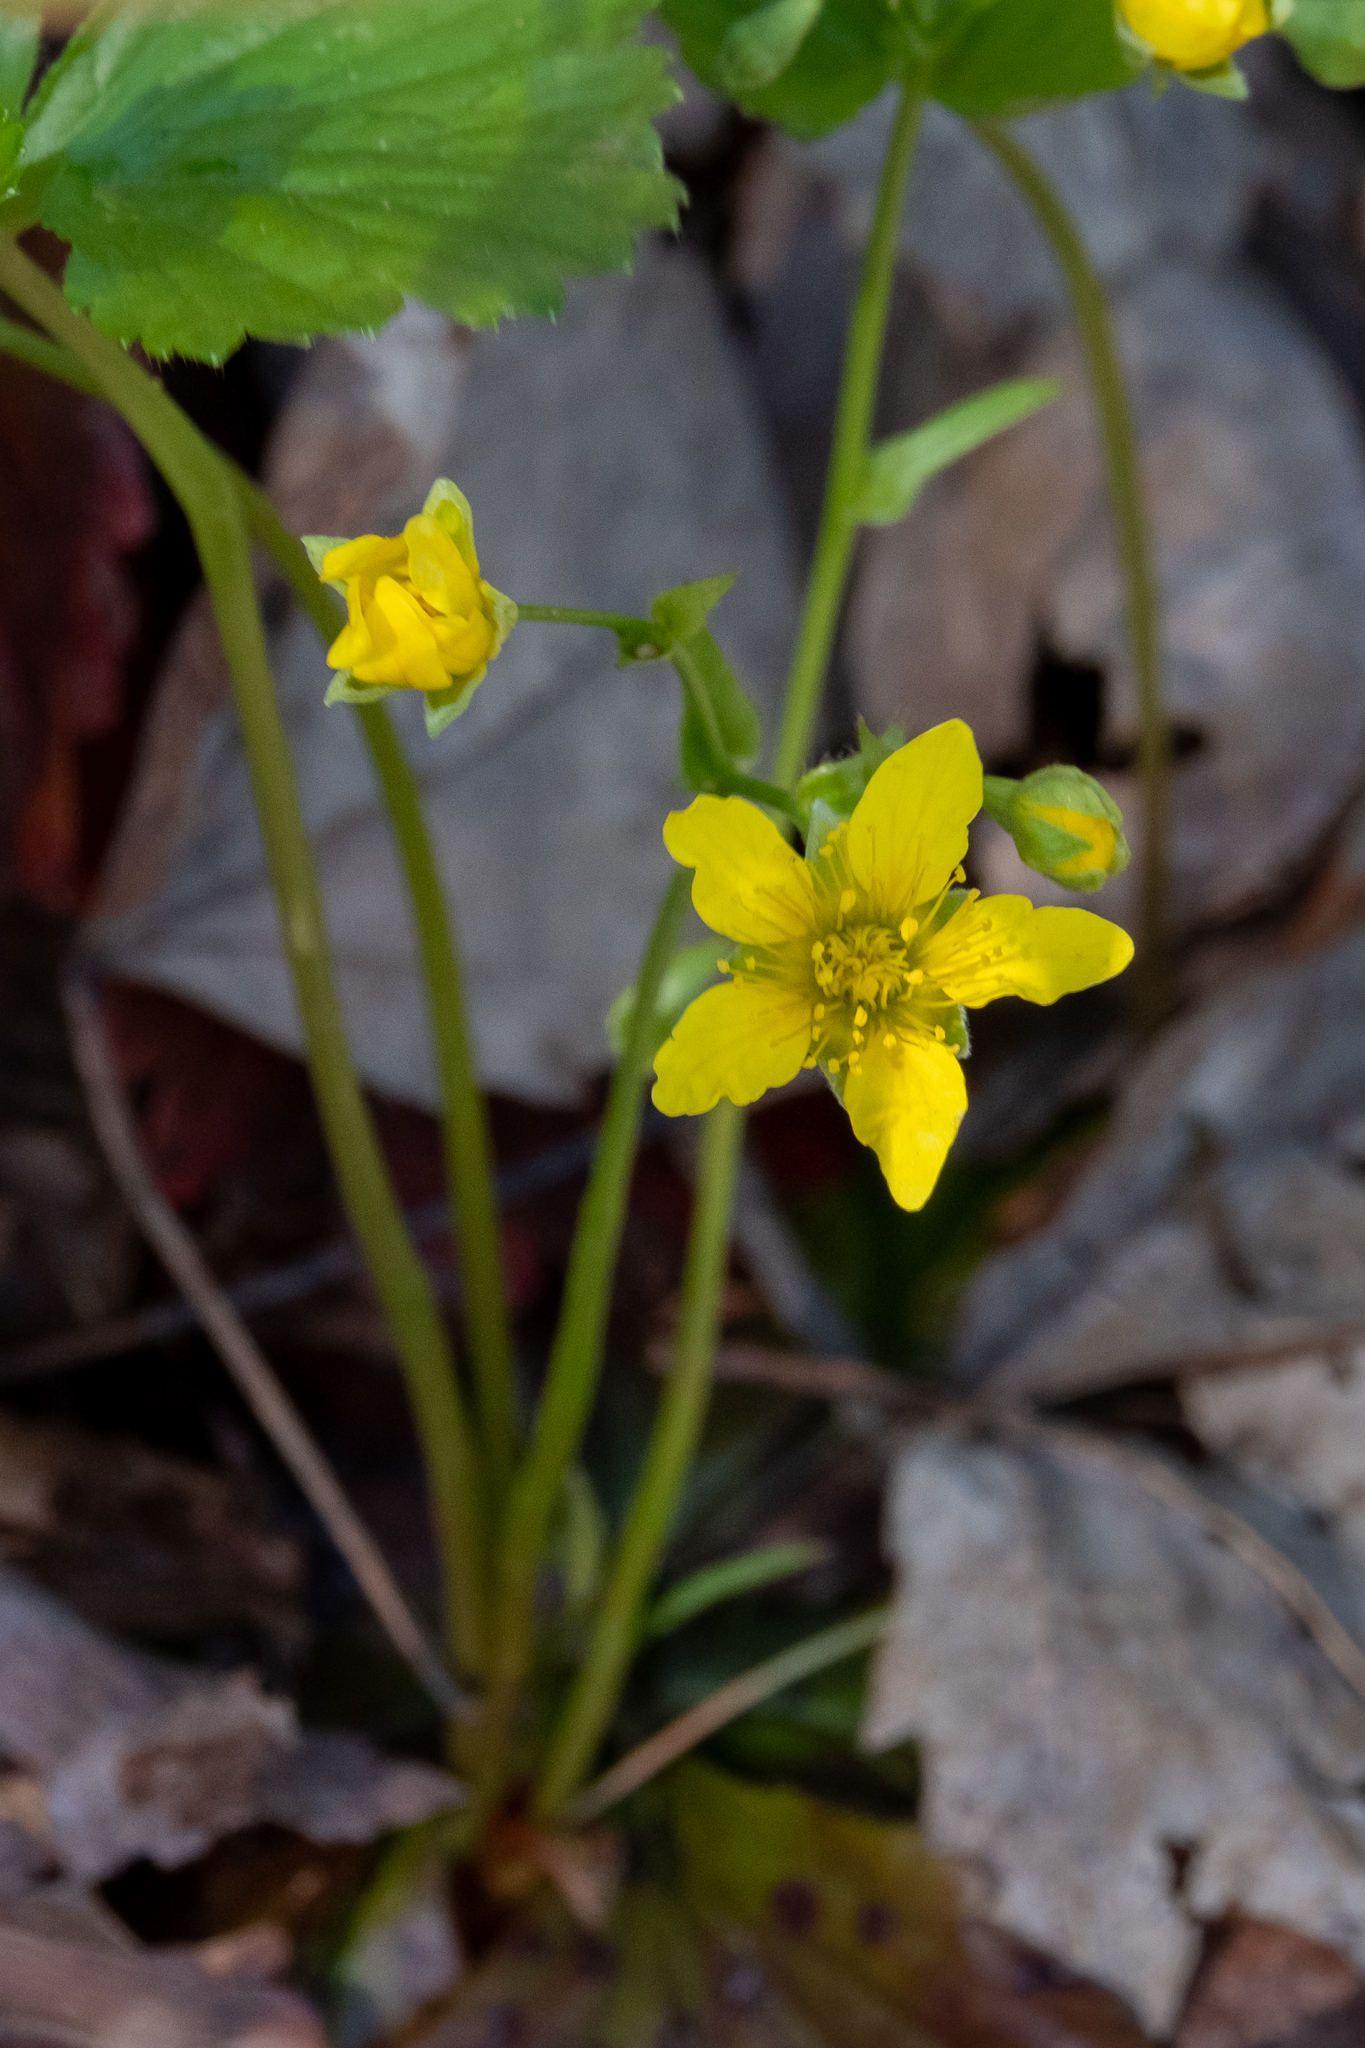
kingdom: Plantae
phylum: Tracheophyta
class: Magnoliopsida
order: Rosales
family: Rosaceae
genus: Geum
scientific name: Geum fragarioides
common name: Appalachian barren strawberry
